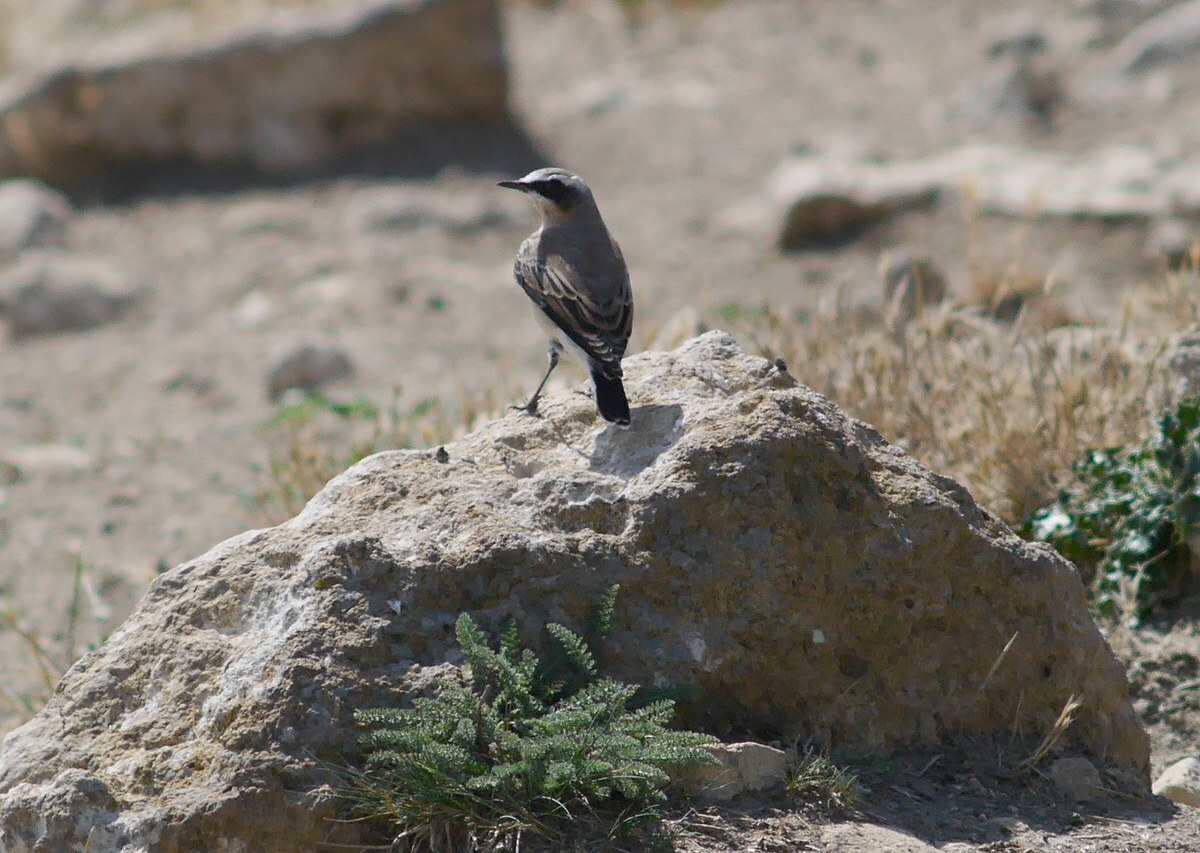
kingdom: Animalia
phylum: Chordata
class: Aves
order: Passeriformes
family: Muscicapidae
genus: Oenanthe
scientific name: Oenanthe oenanthe
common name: Northern wheatear
